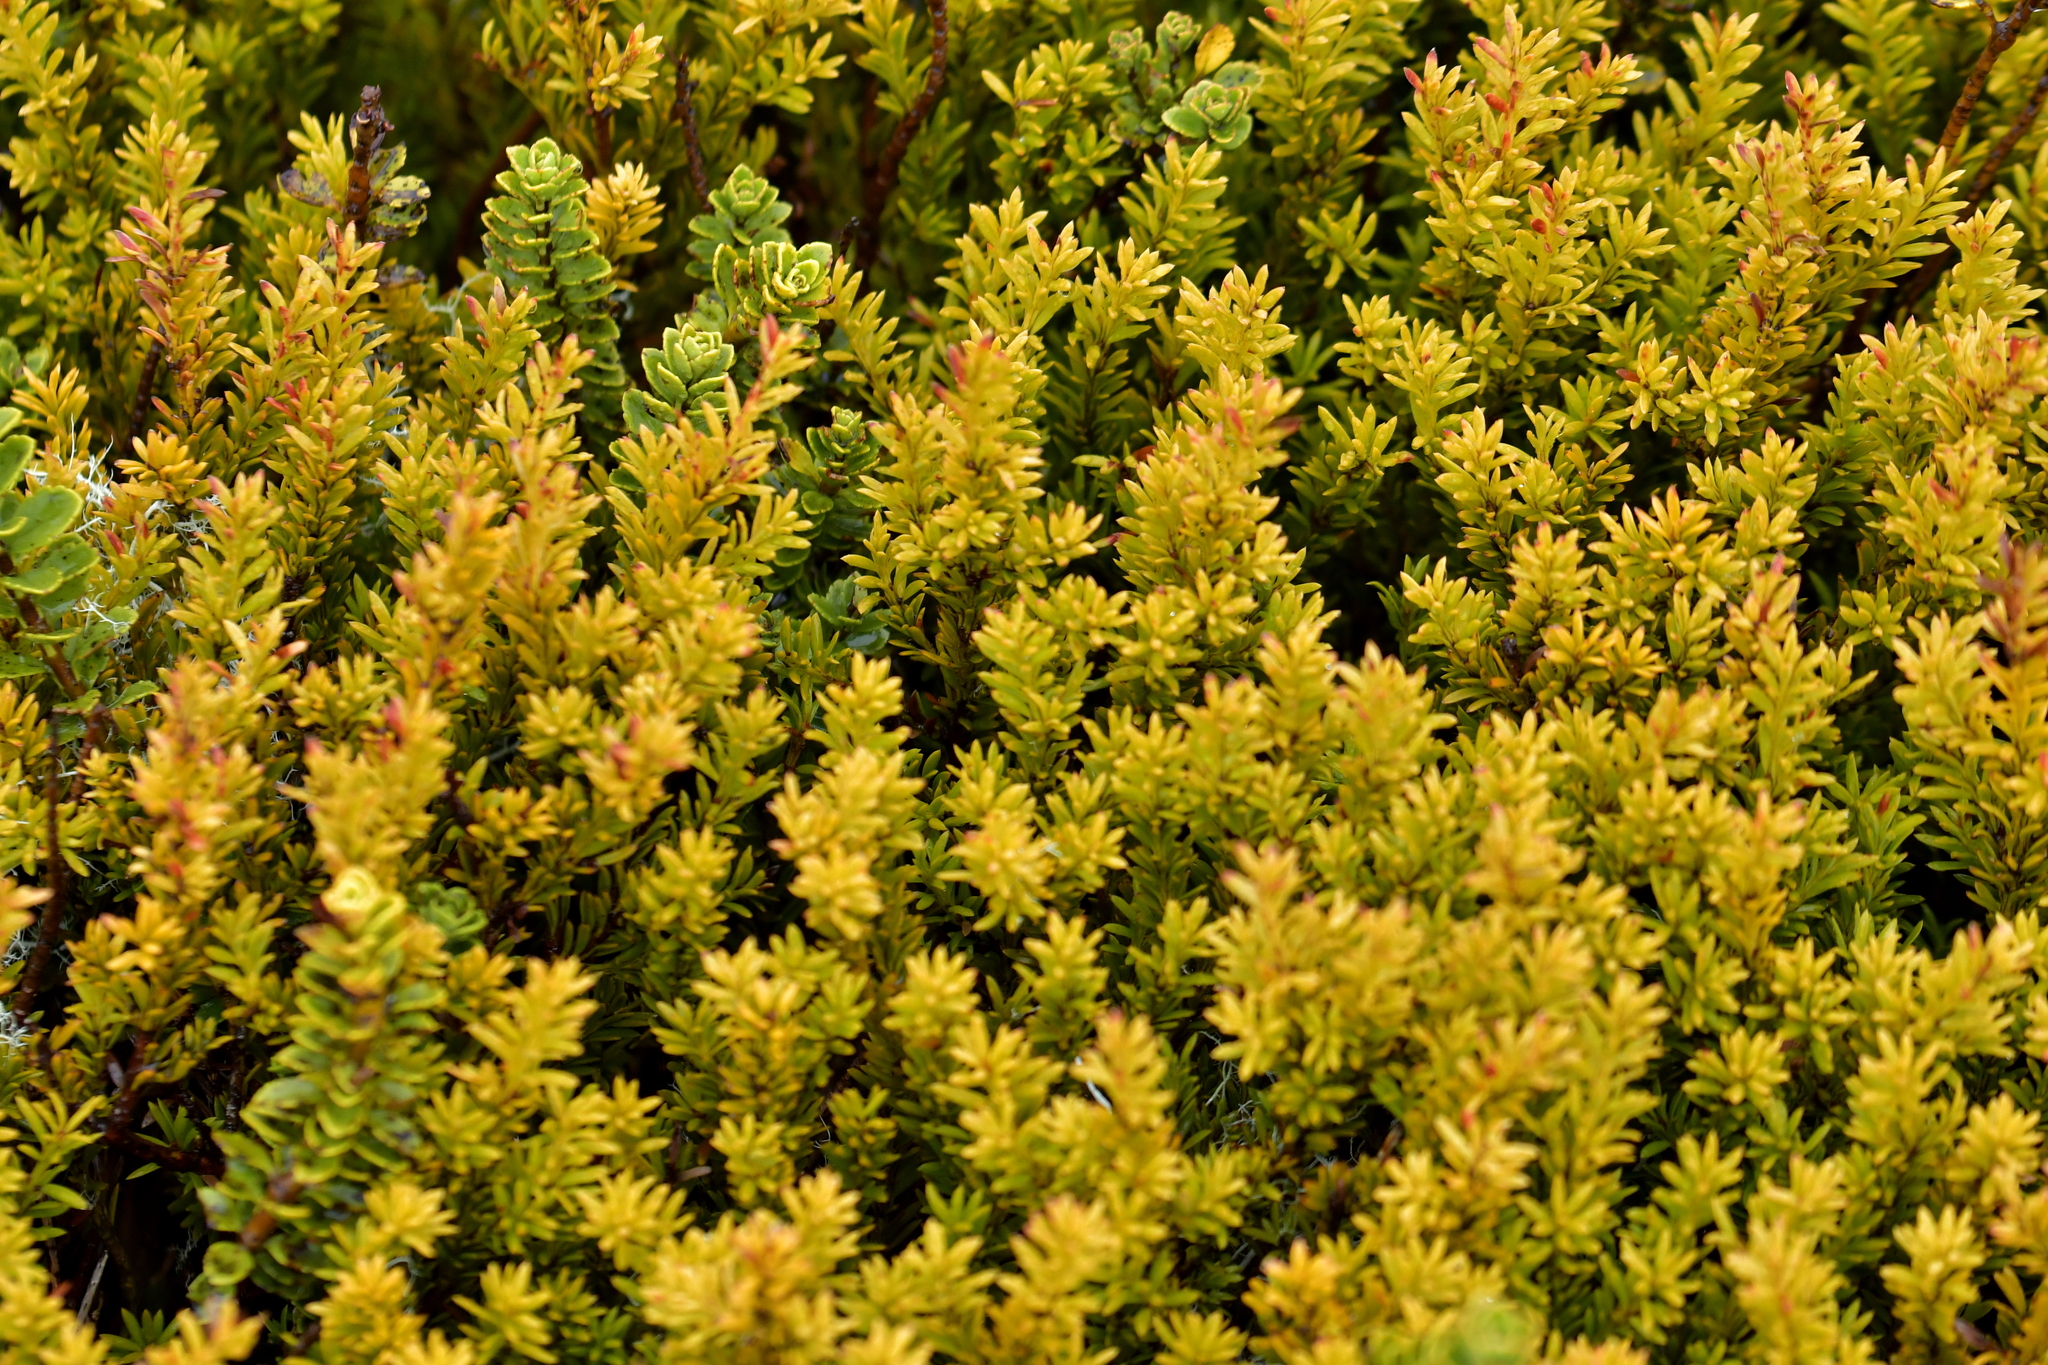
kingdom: Plantae
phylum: Tracheophyta
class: Pinopsida
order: Pinales
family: Podocarpaceae
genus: Podocarpus
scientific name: Podocarpus nivalis
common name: Alpine totara
